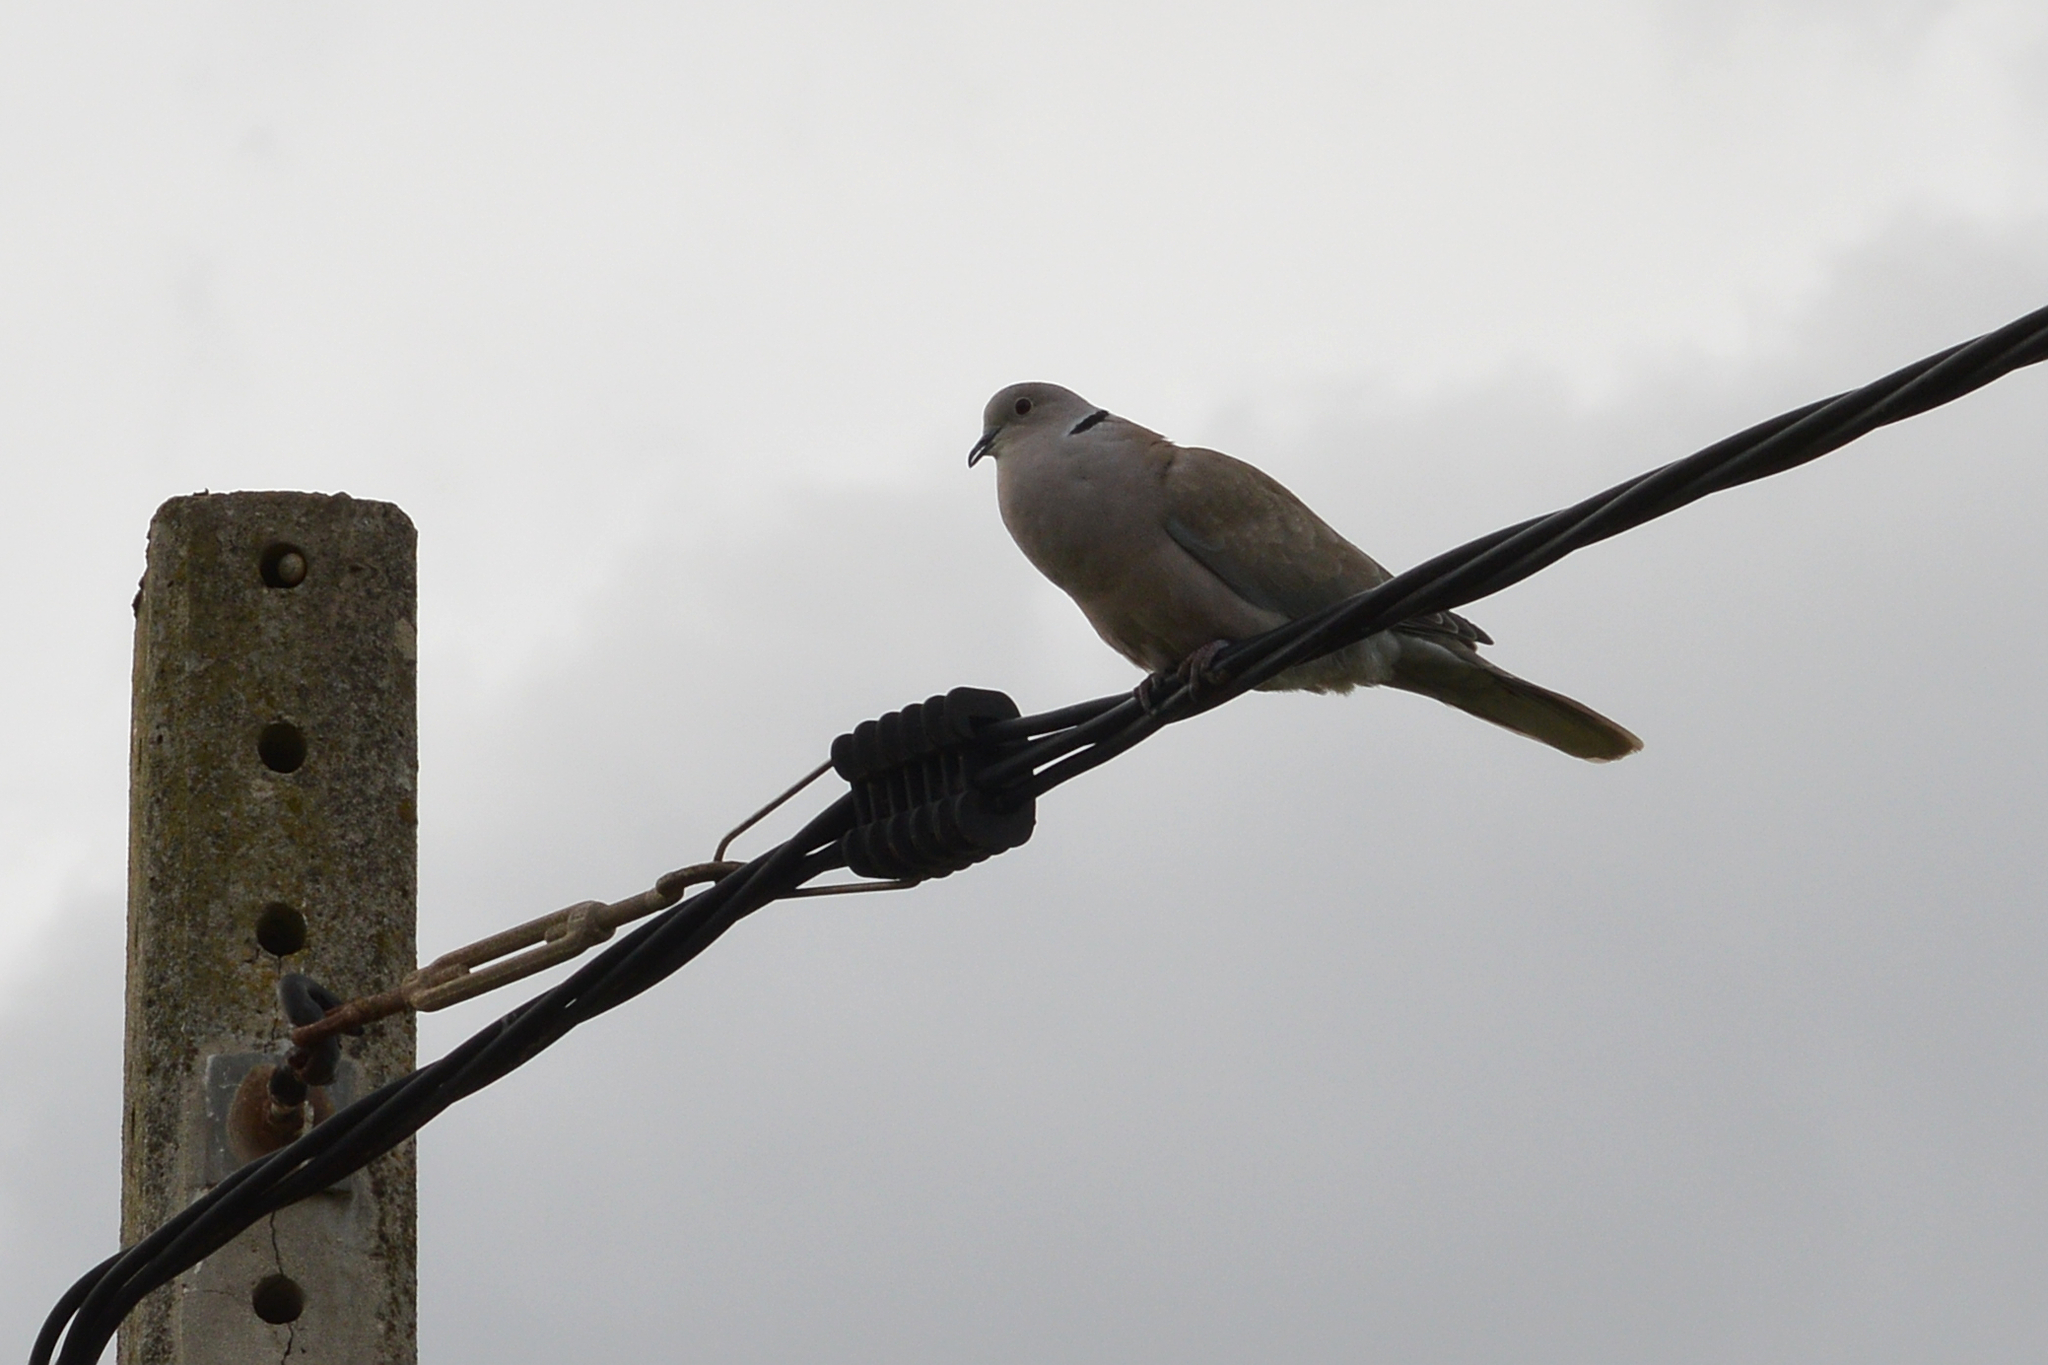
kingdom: Animalia
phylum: Chordata
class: Aves
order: Columbiformes
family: Columbidae
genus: Streptopelia
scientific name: Streptopelia decaocto
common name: Eurasian collared dove
